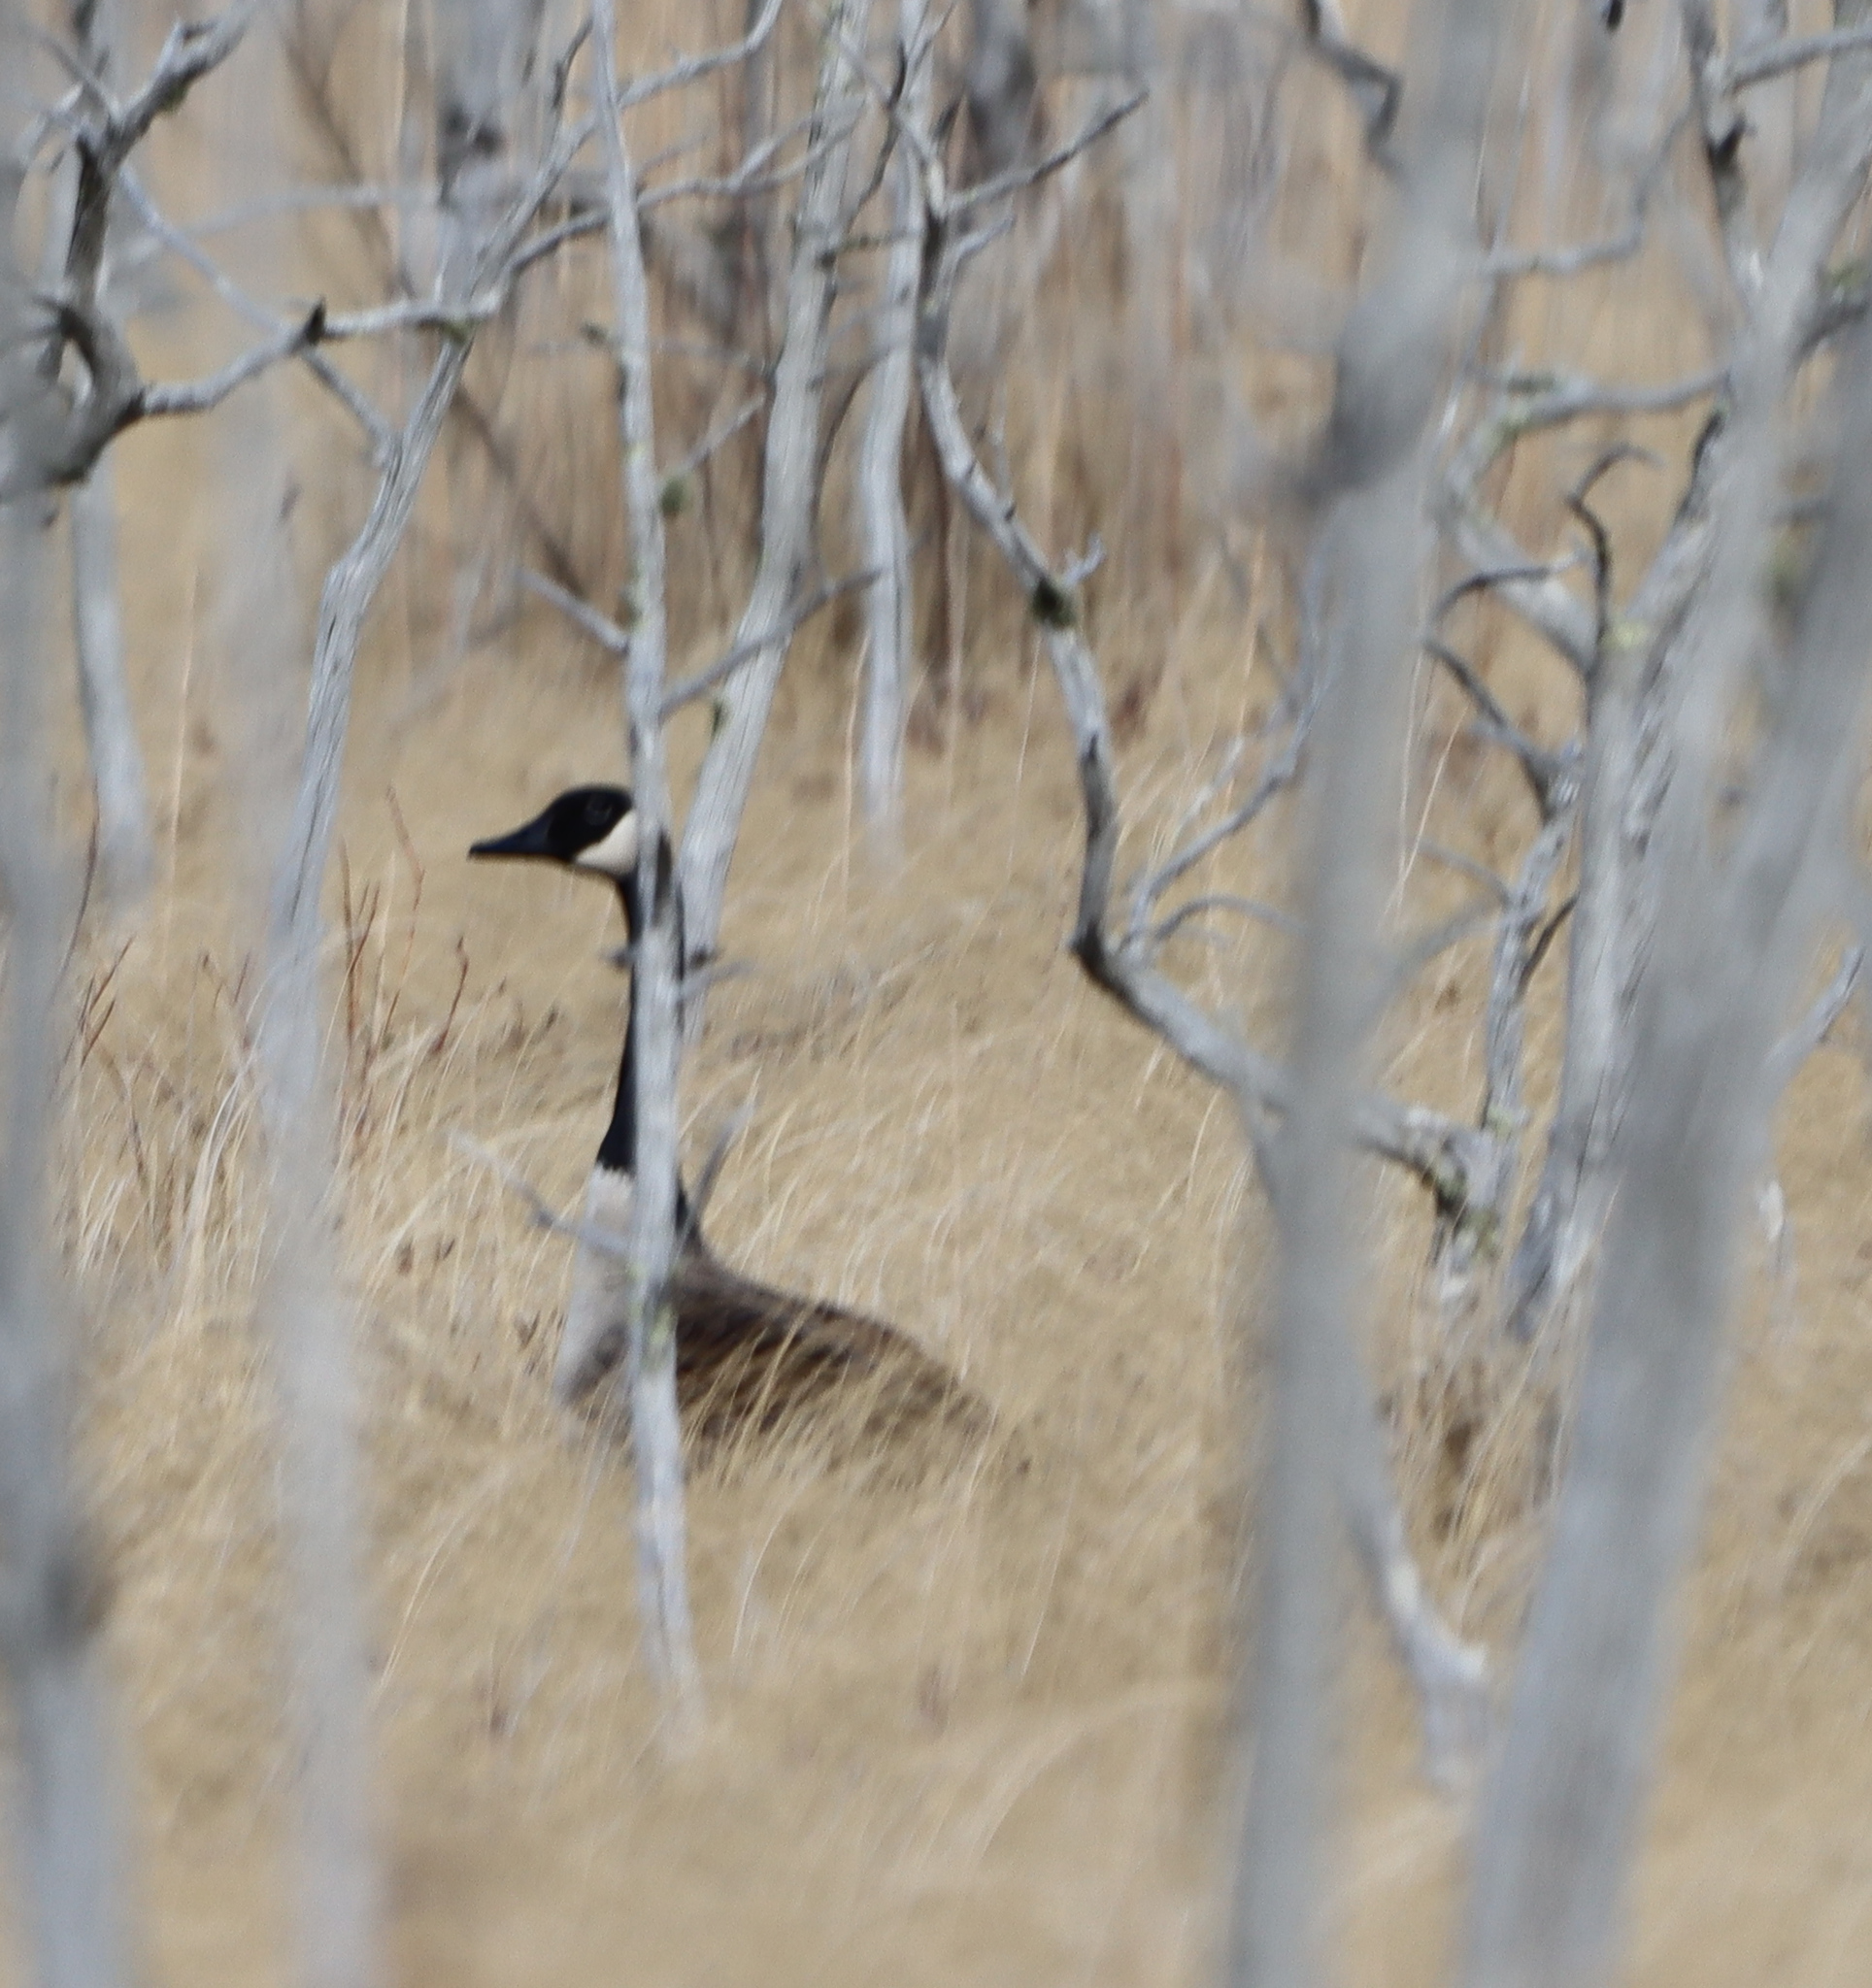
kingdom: Animalia
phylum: Chordata
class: Aves
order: Anseriformes
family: Anatidae
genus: Branta
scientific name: Branta canadensis
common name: Canada goose
